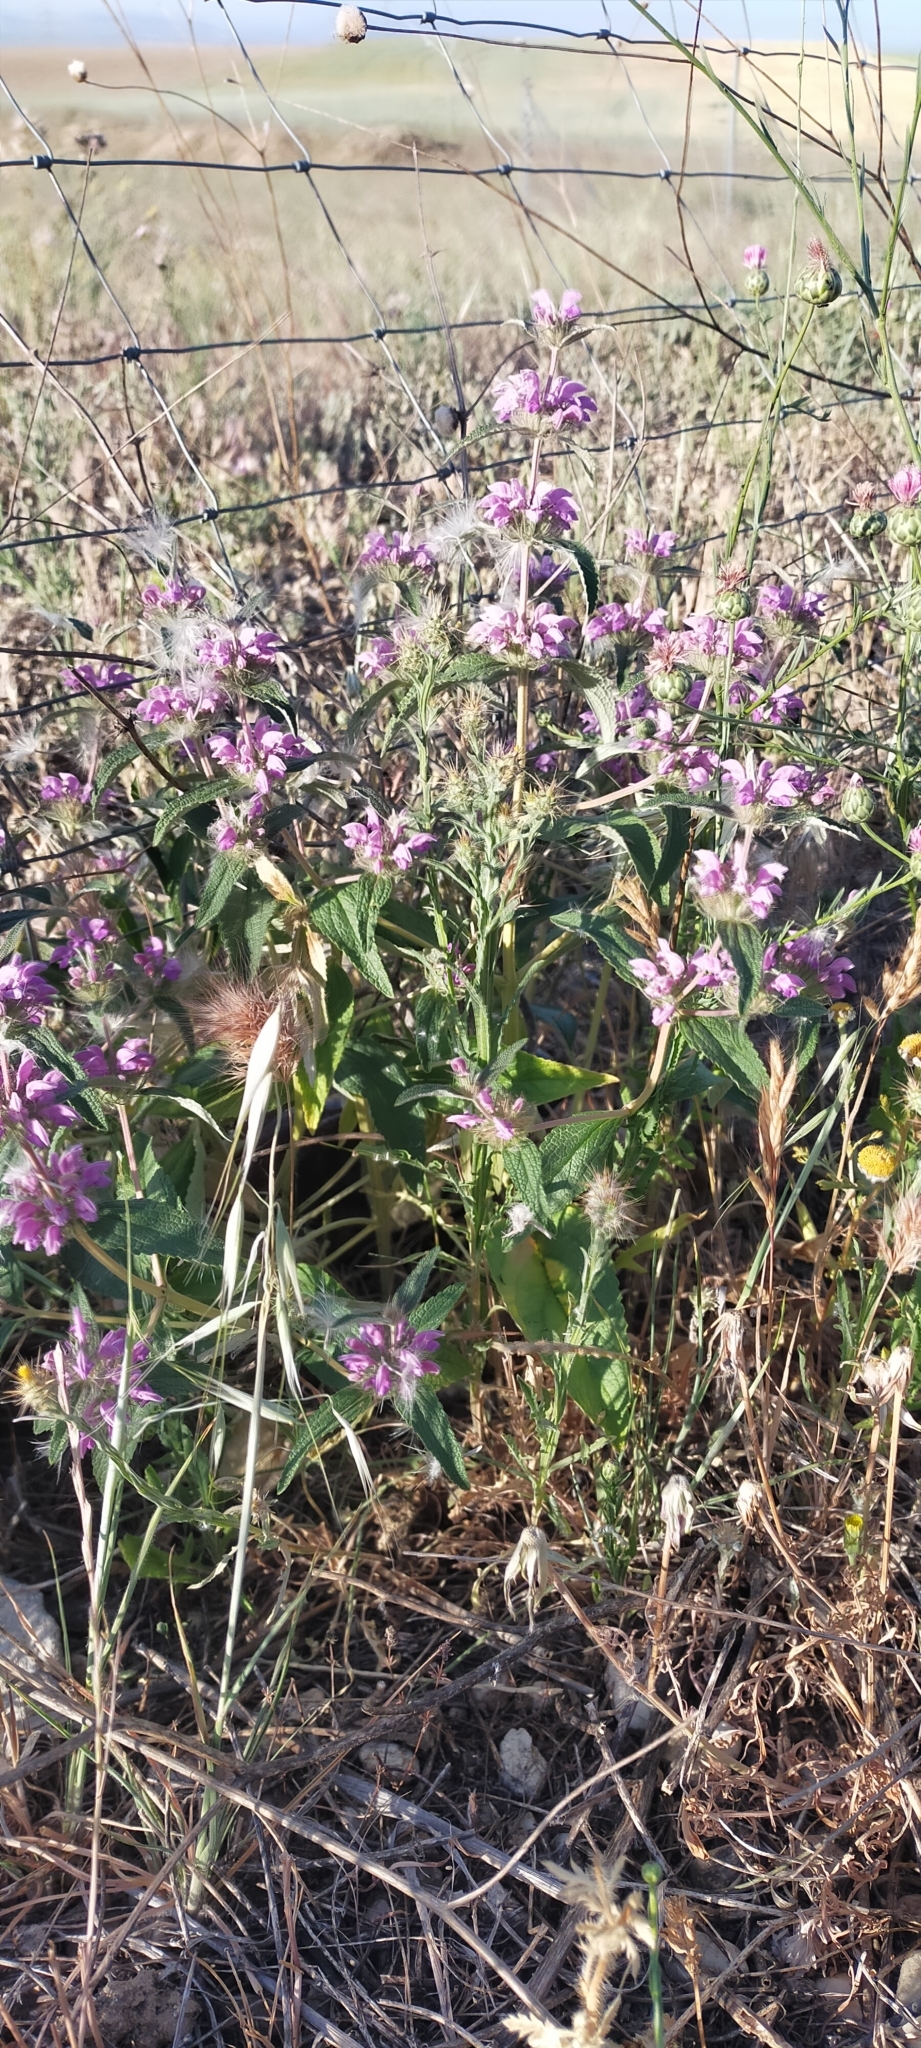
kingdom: Plantae
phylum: Tracheophyta
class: Magnoliopsida
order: Lamiales
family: Lamiaceae
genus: Phlomis
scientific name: Phlomis herba-venti
